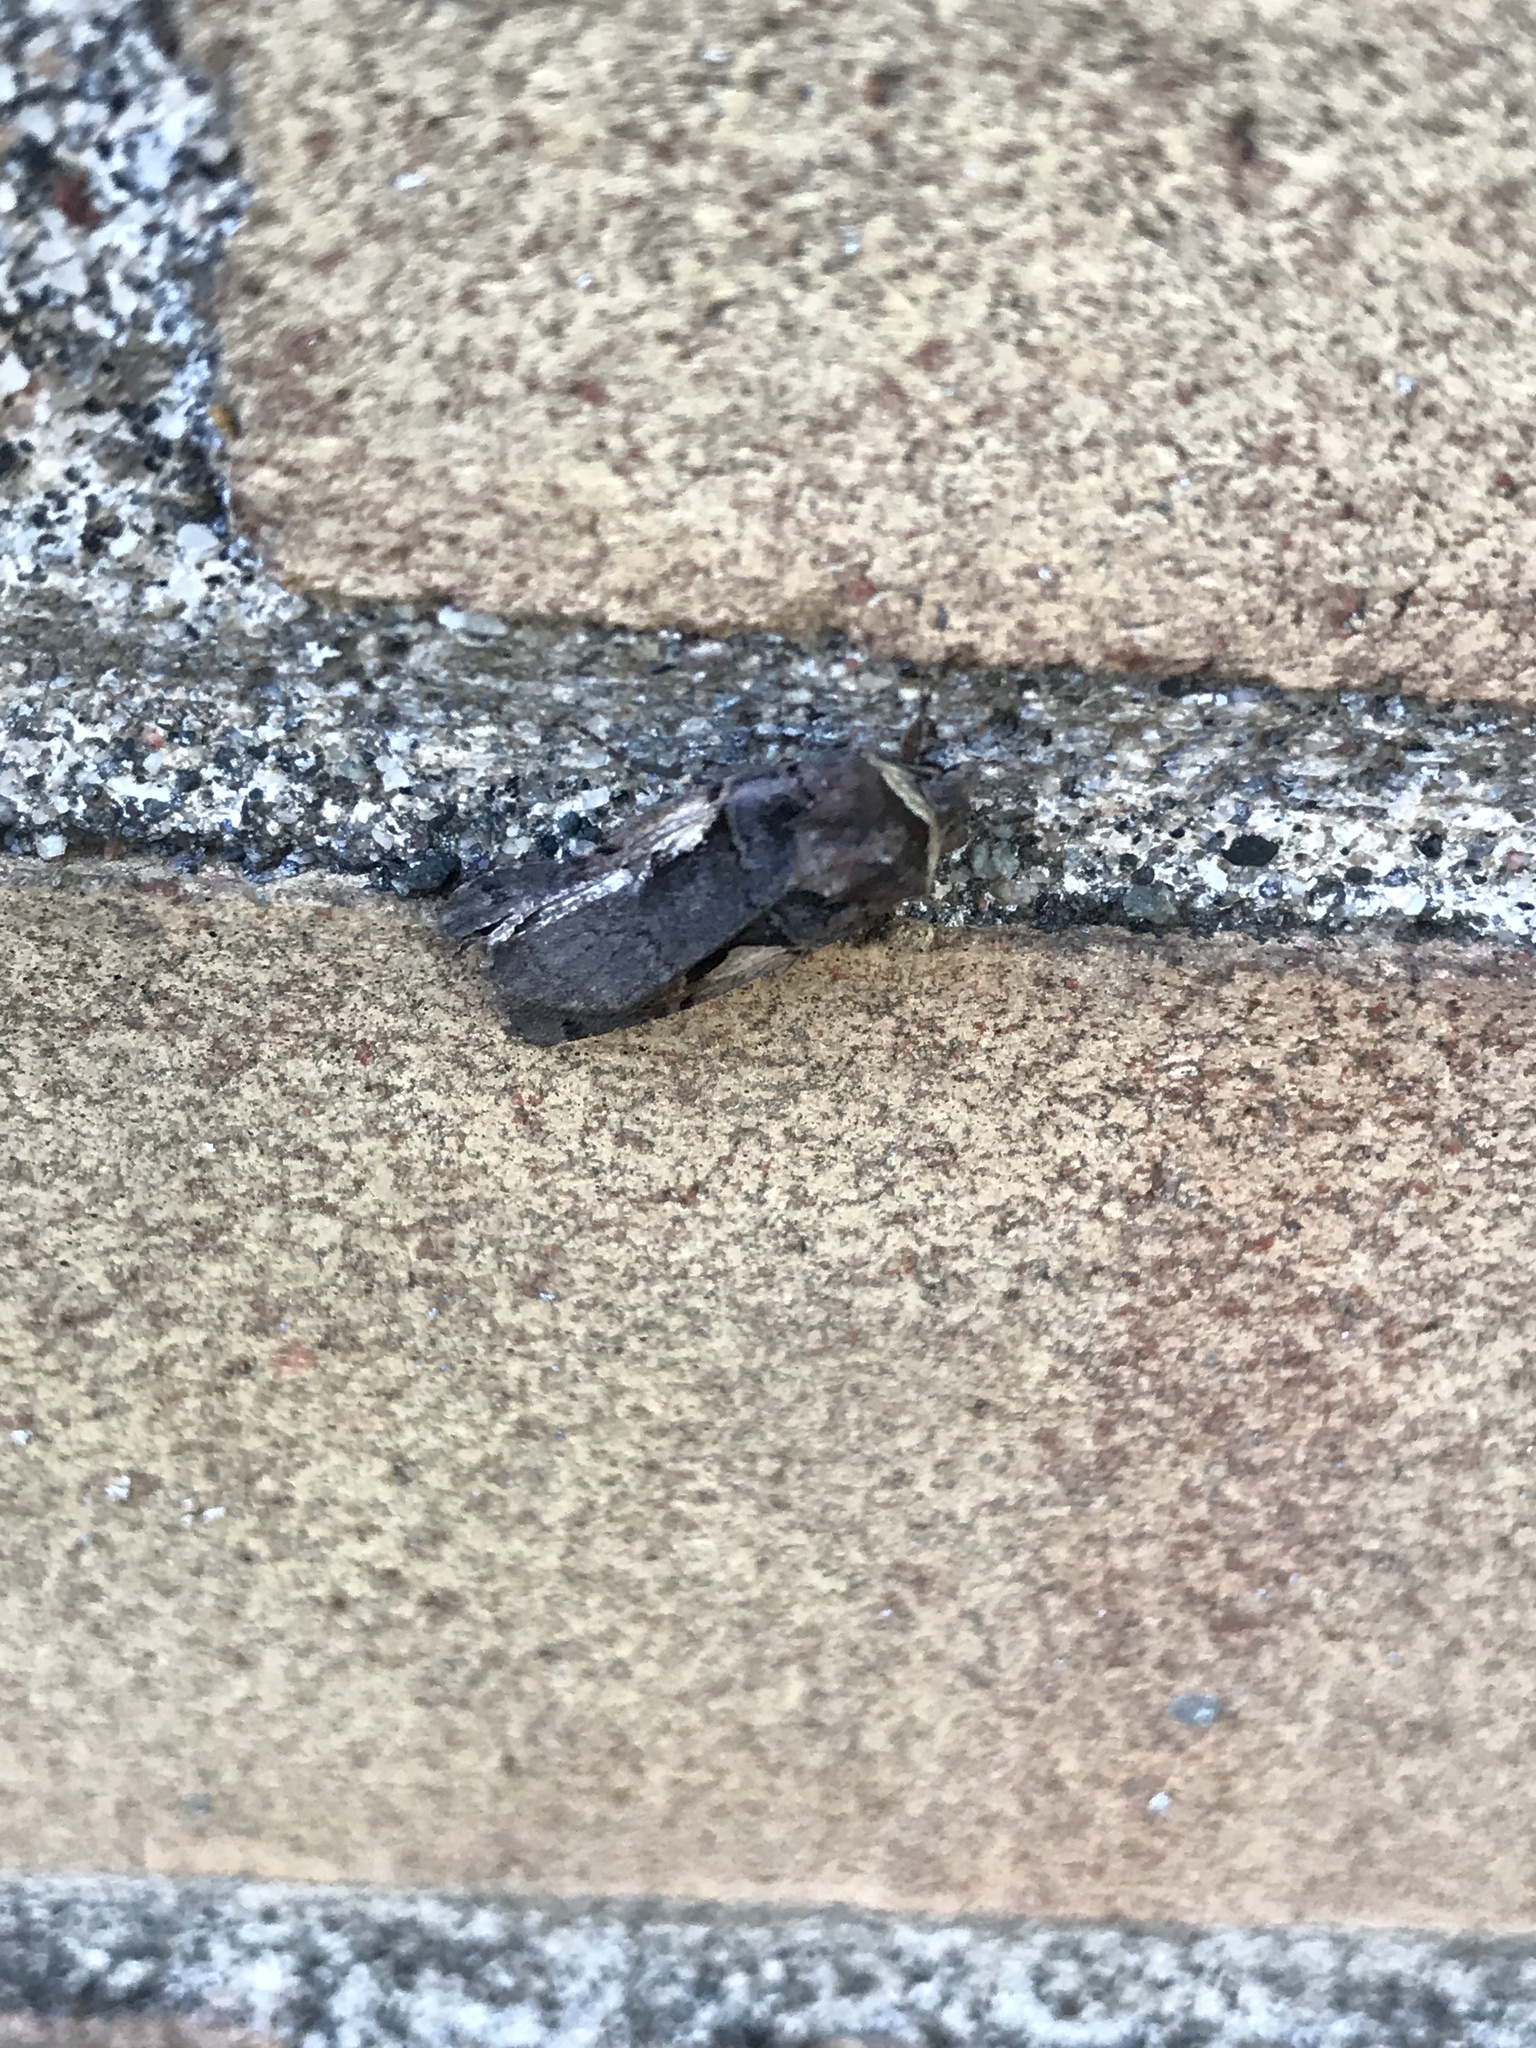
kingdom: Animalia
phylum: Arthropoda
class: Insecta
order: Lepidoptera
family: Noctuidae
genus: Xestia
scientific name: Xestia
